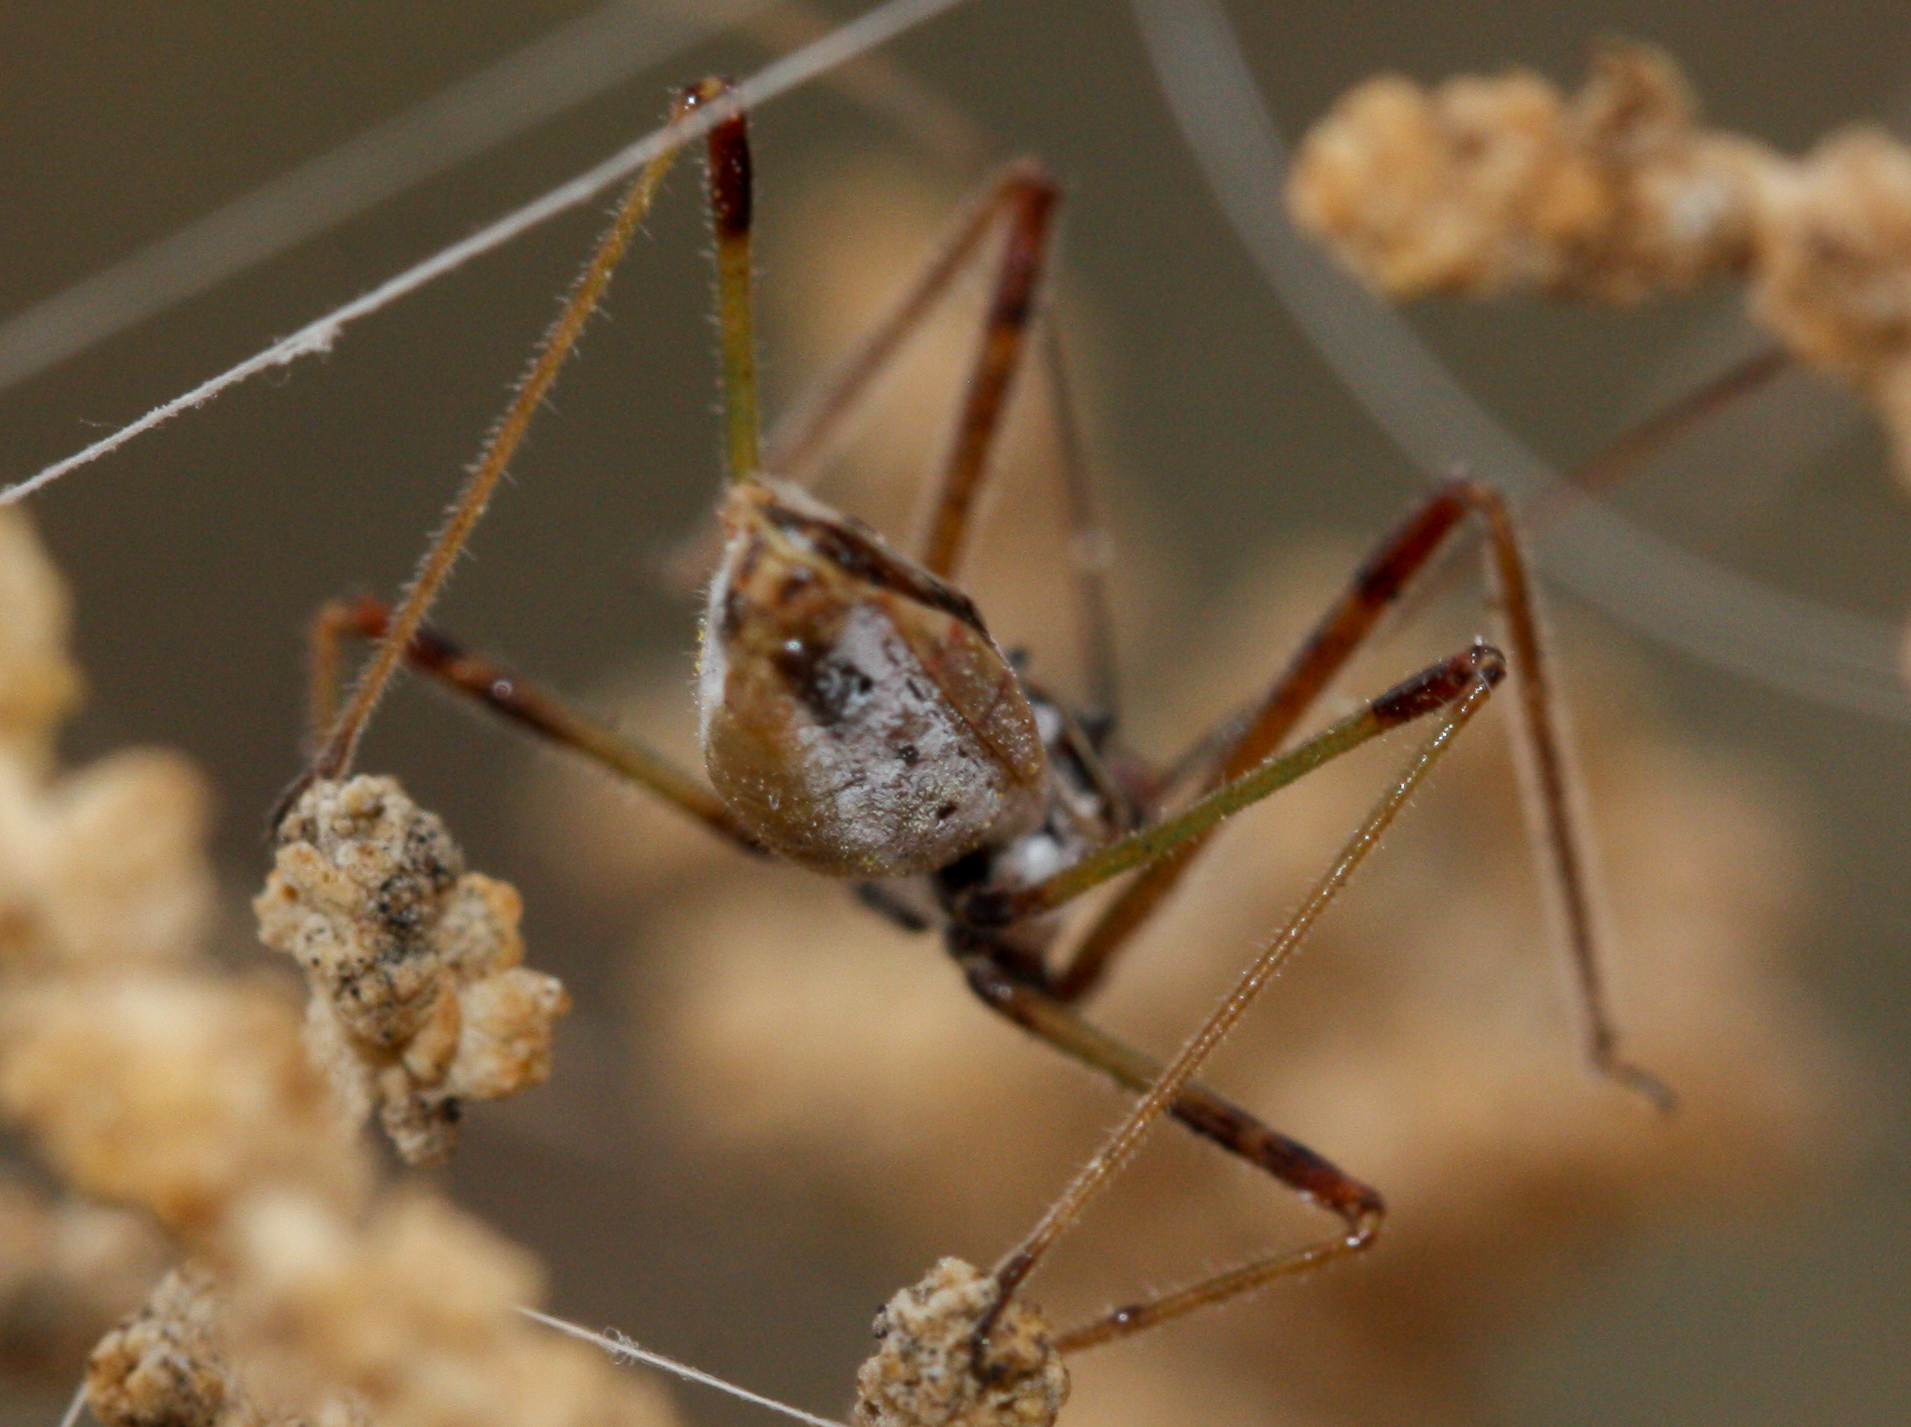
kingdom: Animalia
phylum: Arthropoda
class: Insecta
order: Hemiptera
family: Reduviidae
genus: Zelus
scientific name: Zelus tetracanthus
